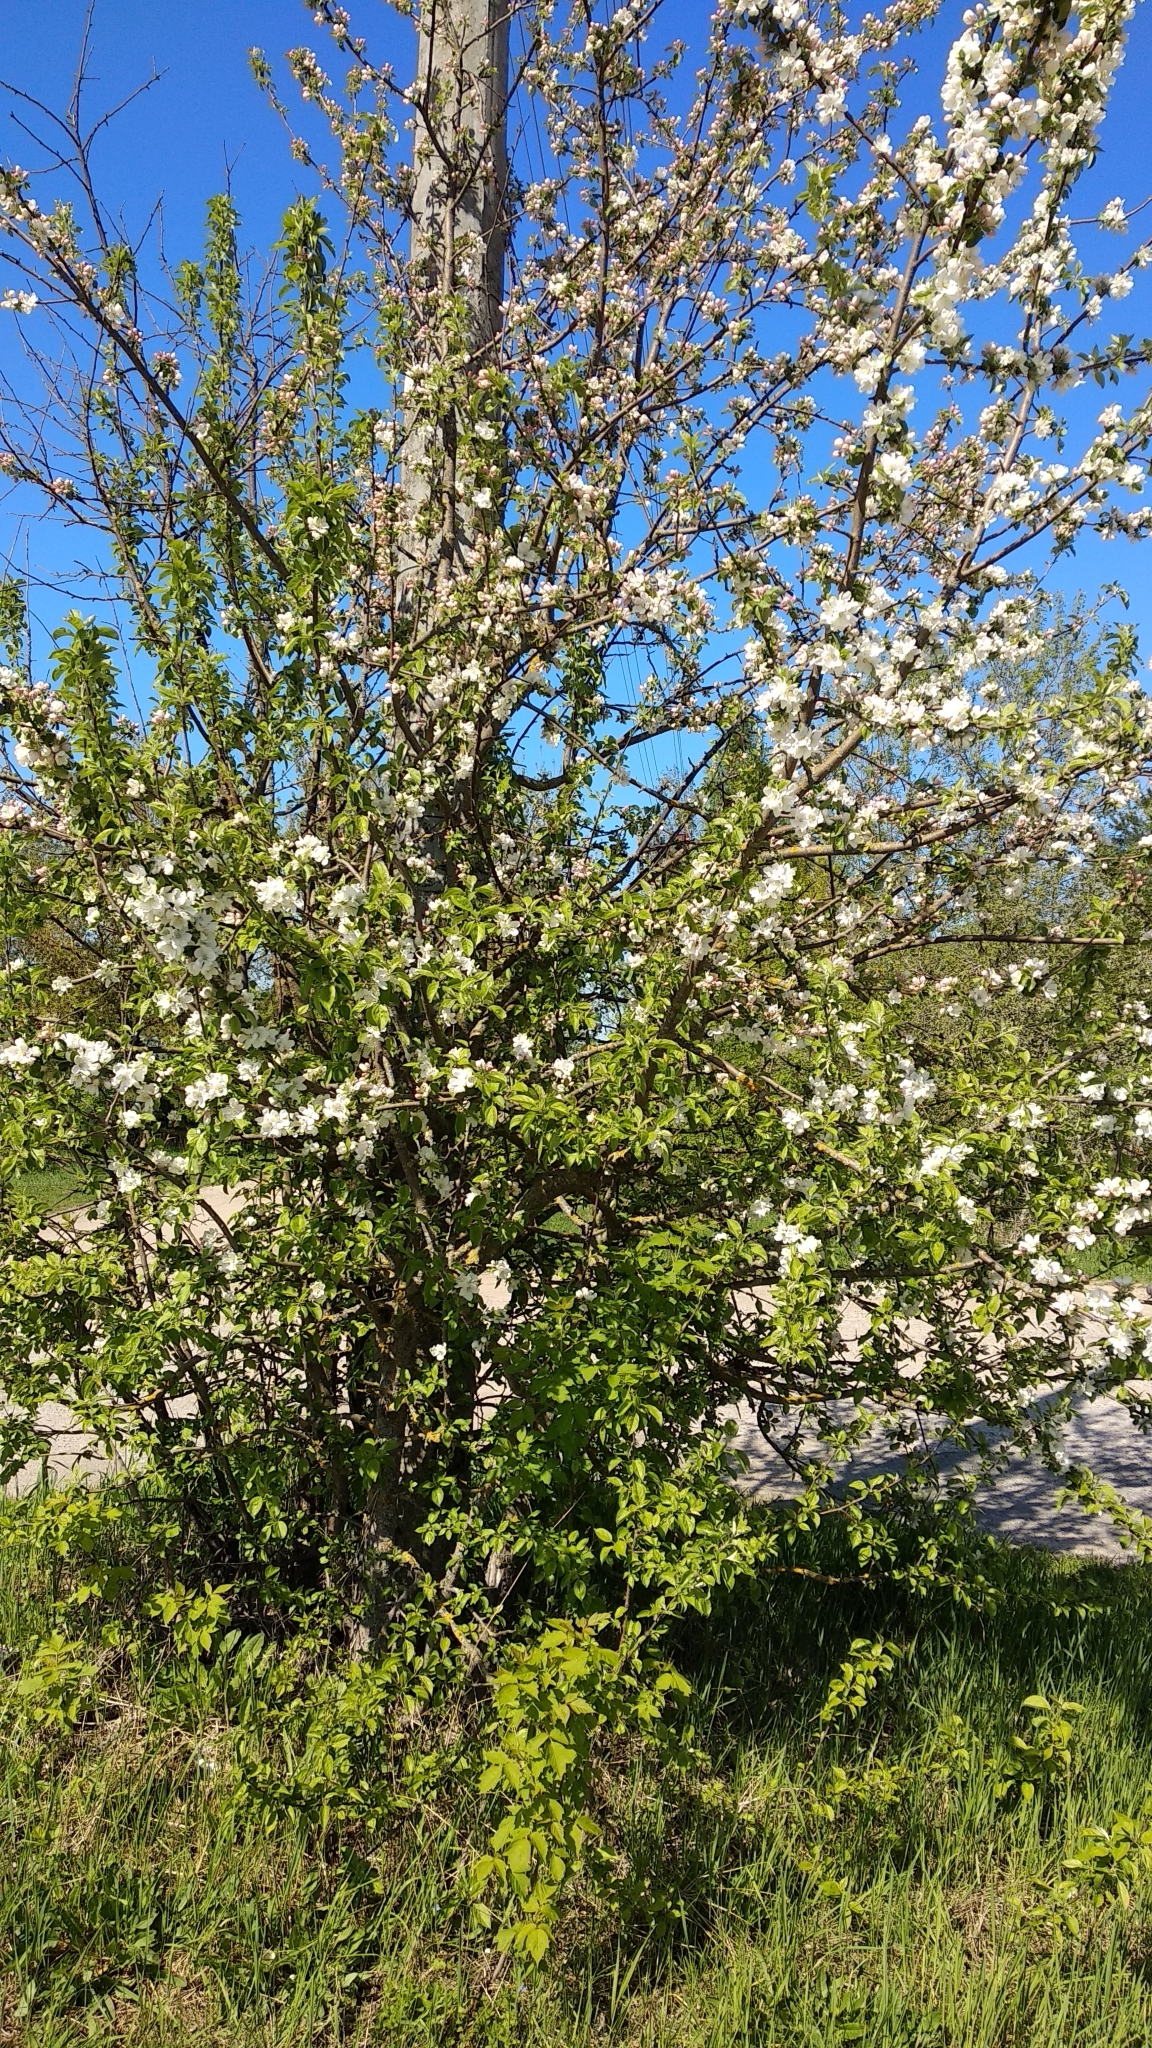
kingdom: Plantae
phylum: Tracheophyta
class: Magnoliopsida
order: Rosales
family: Rosaceae
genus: Malus
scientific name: Malus domestica
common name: Apple
